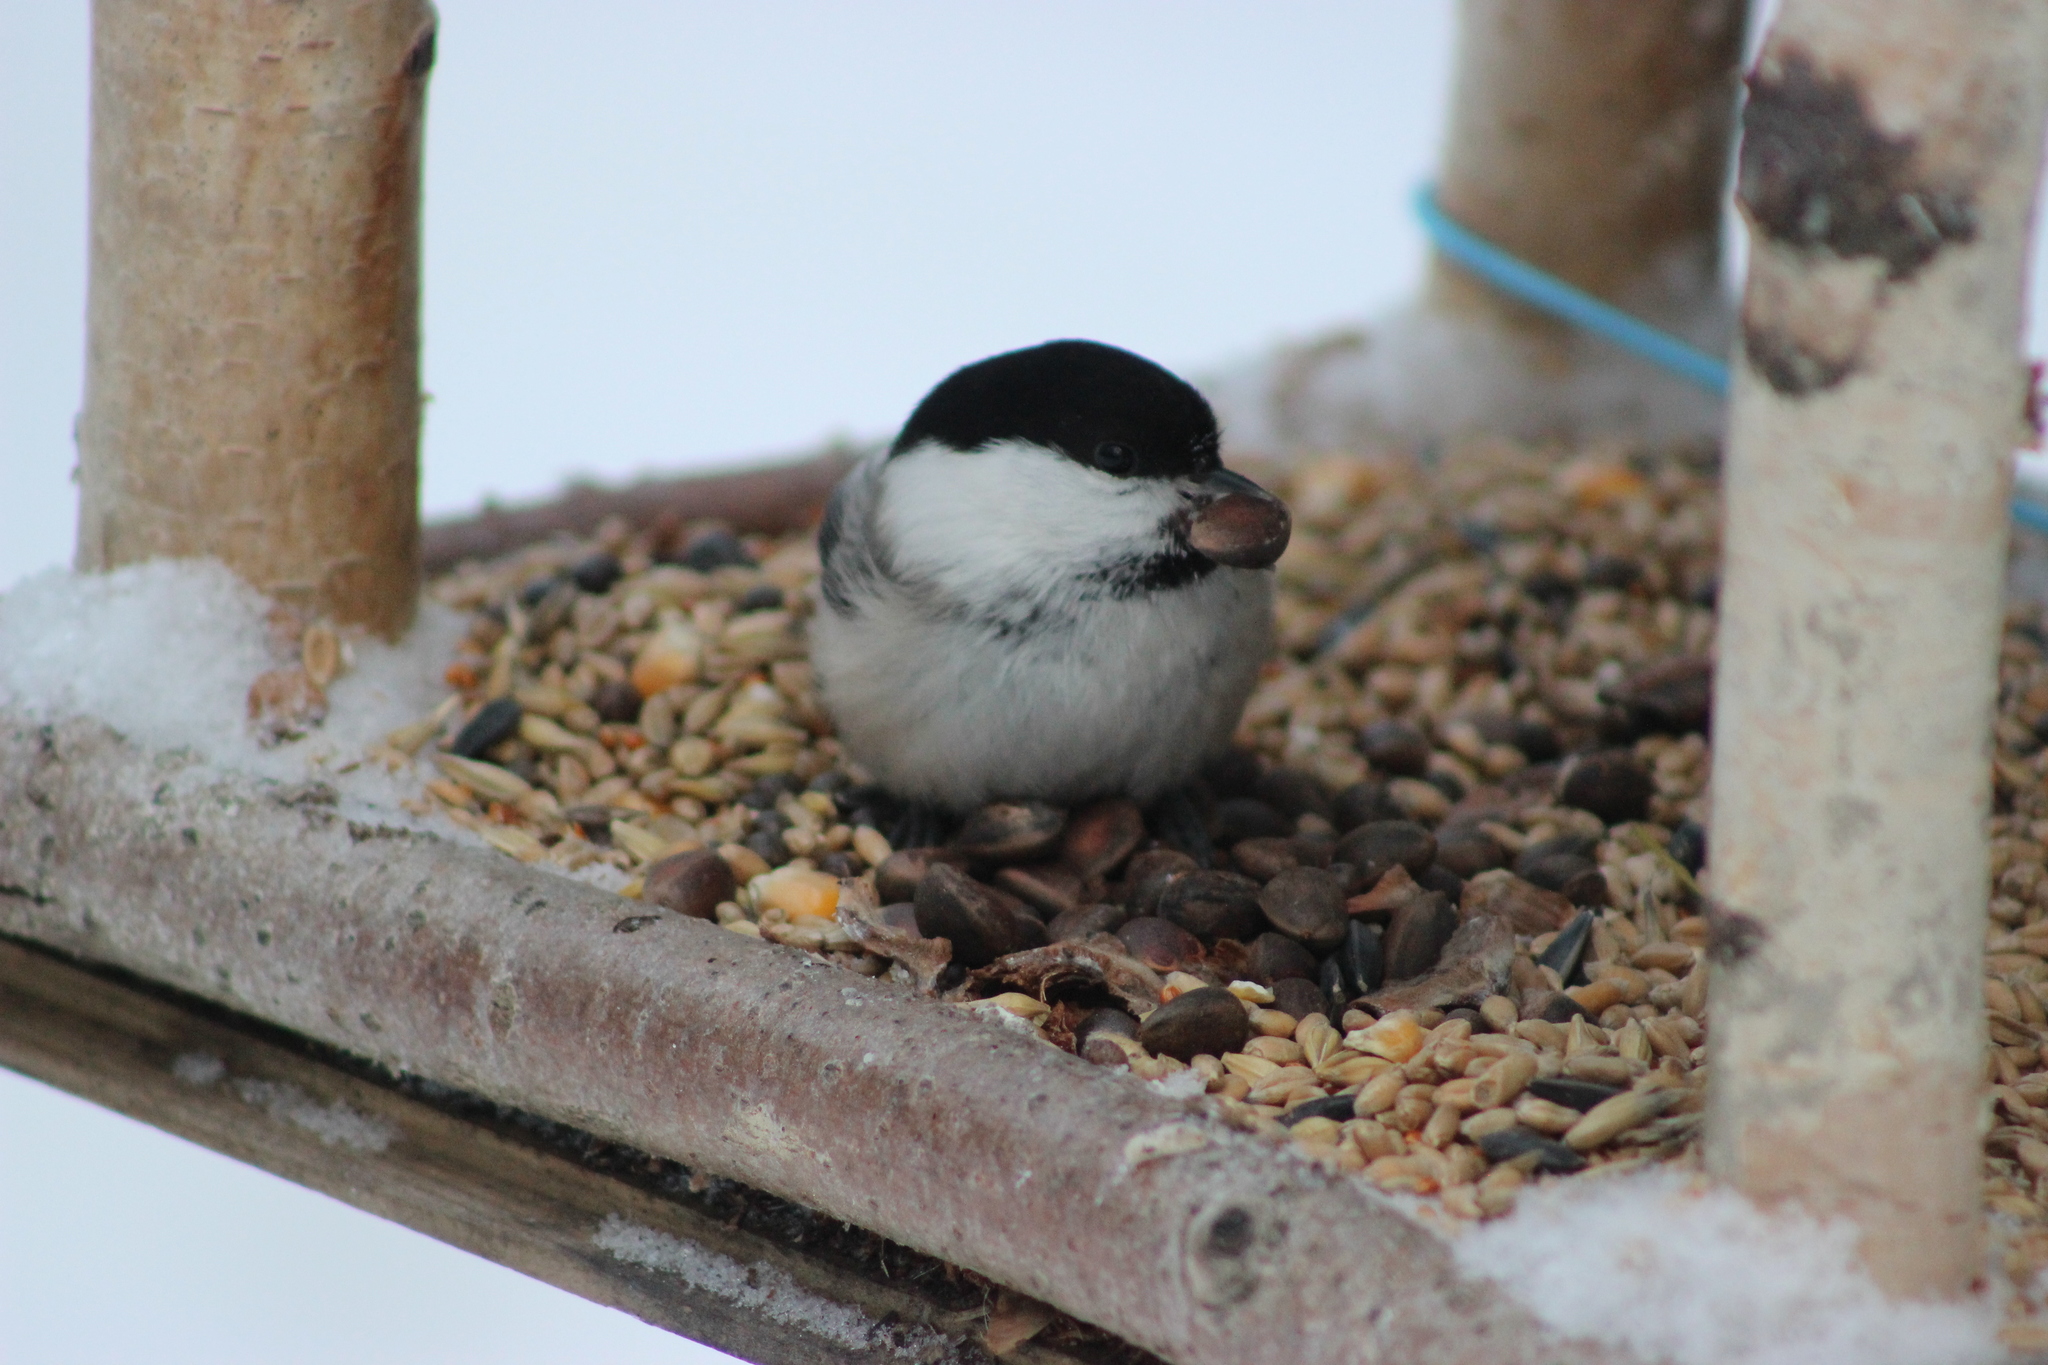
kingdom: Animalia
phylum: Chordata
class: Aves
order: Passeriformes
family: Paridae
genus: Poecile
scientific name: Poecile montanus
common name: Willow tit
